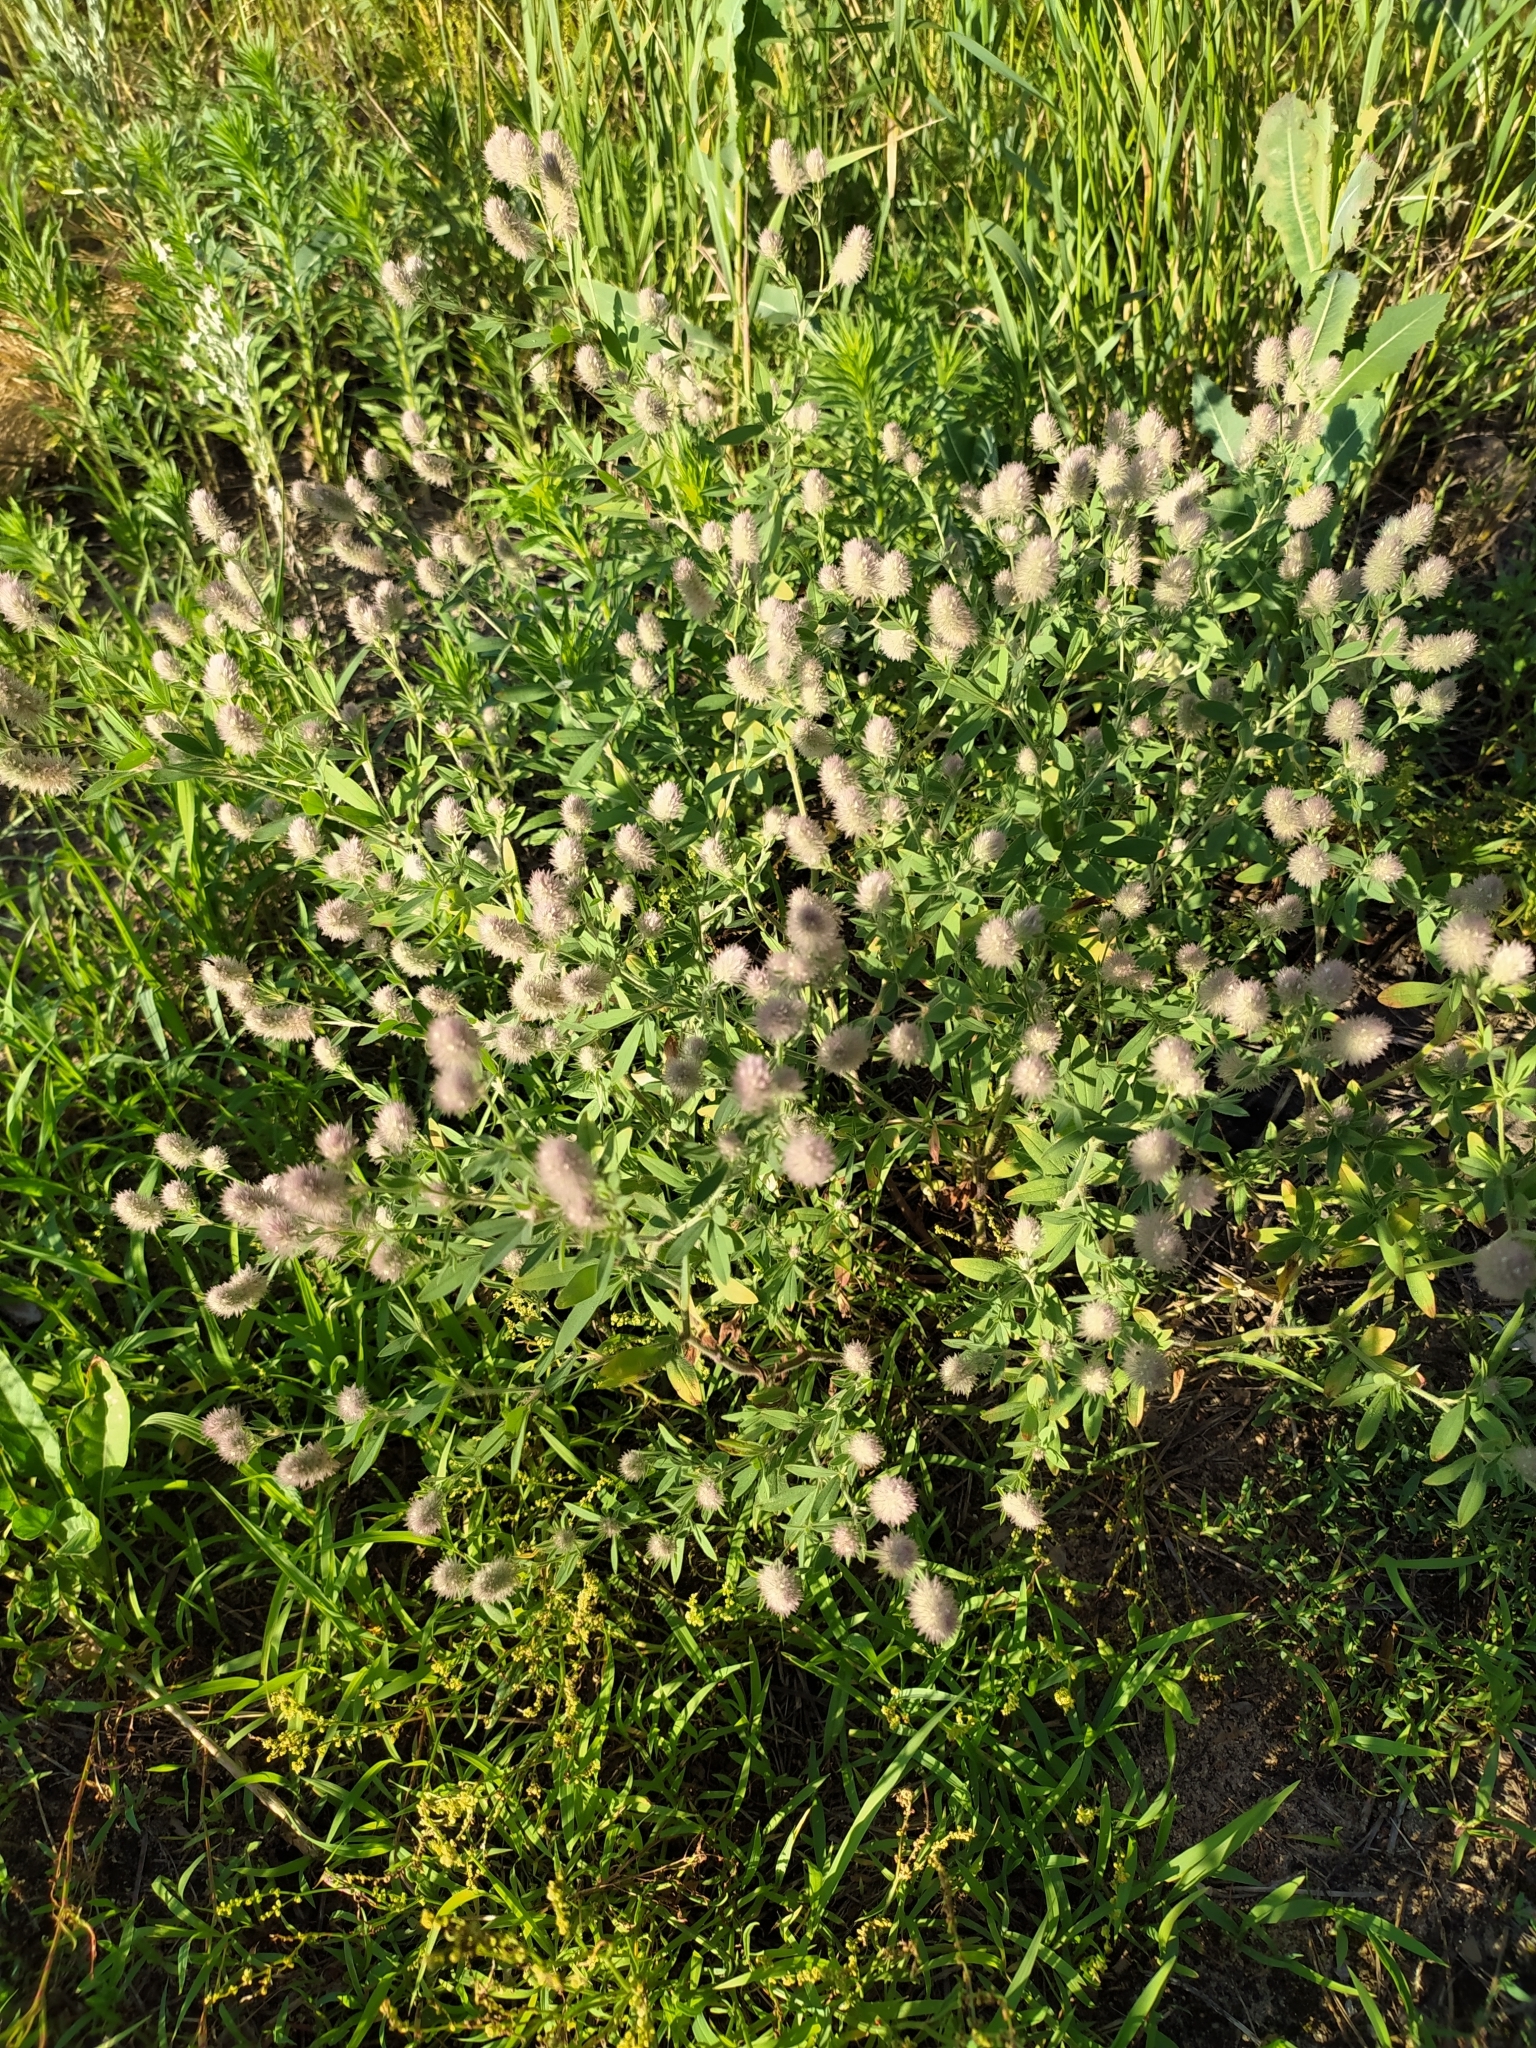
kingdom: Plantae
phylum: Tracheophyta
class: Magnoliopsida
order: Fabales
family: Fabaceae
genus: Trifolium
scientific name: Trifolium arvense
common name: Hare's-foot clover
